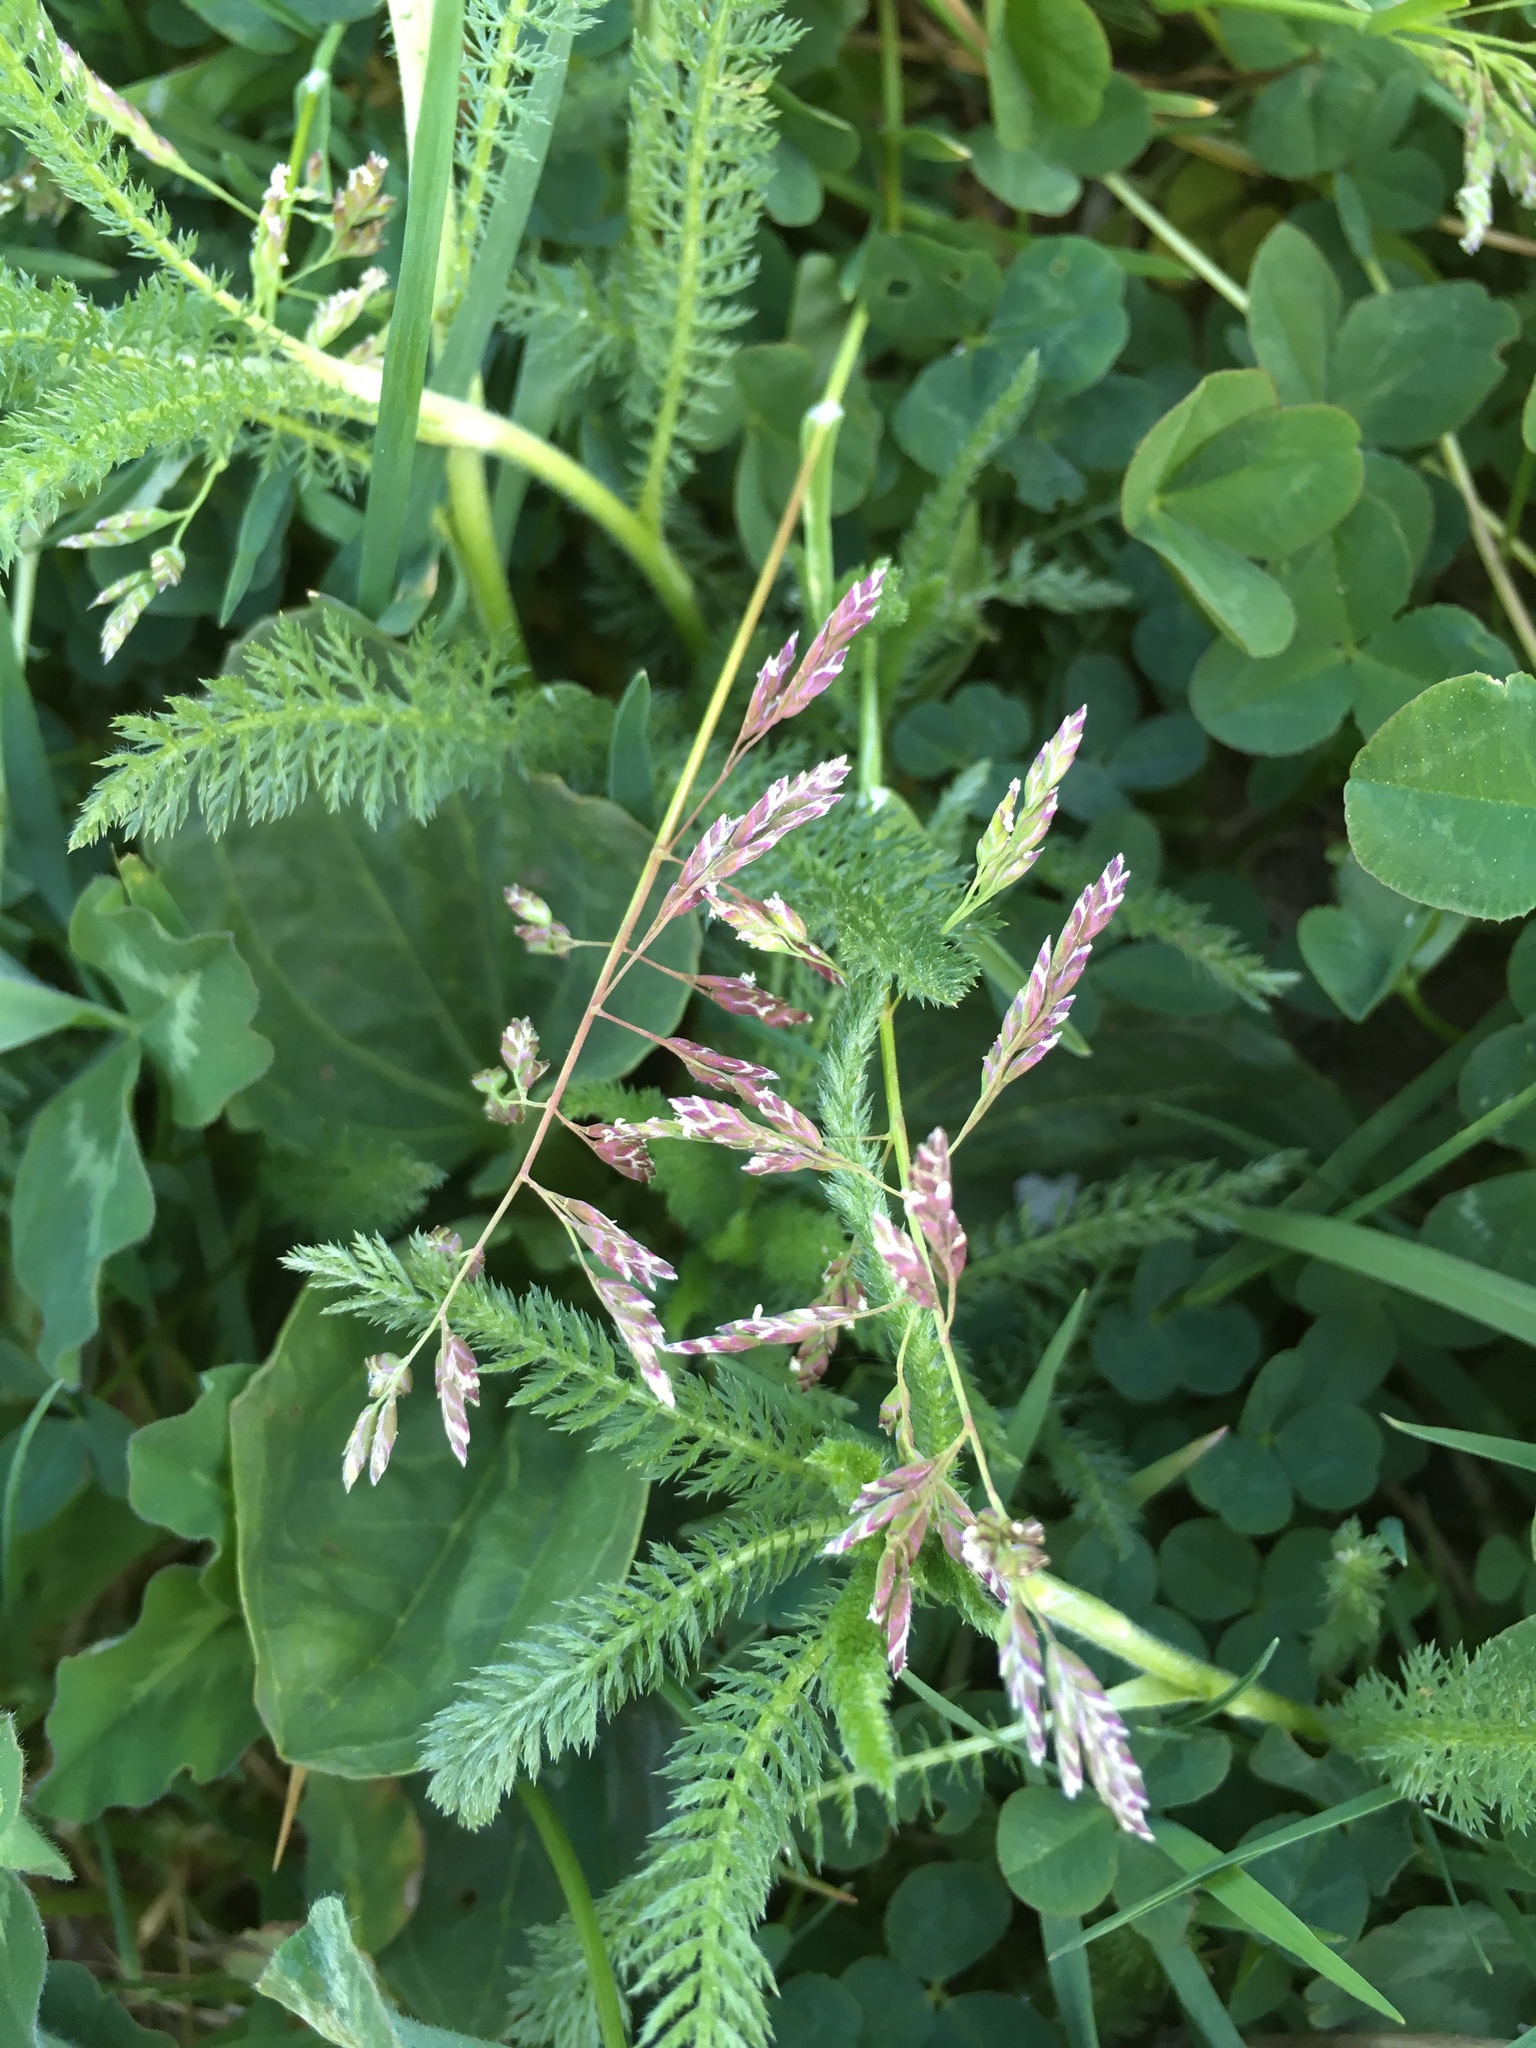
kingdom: Plantae
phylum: Tracheophyta
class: Liliopsida
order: Poales
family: Poaceae
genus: Poa
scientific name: Poa annua
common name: Annual bluegrass
